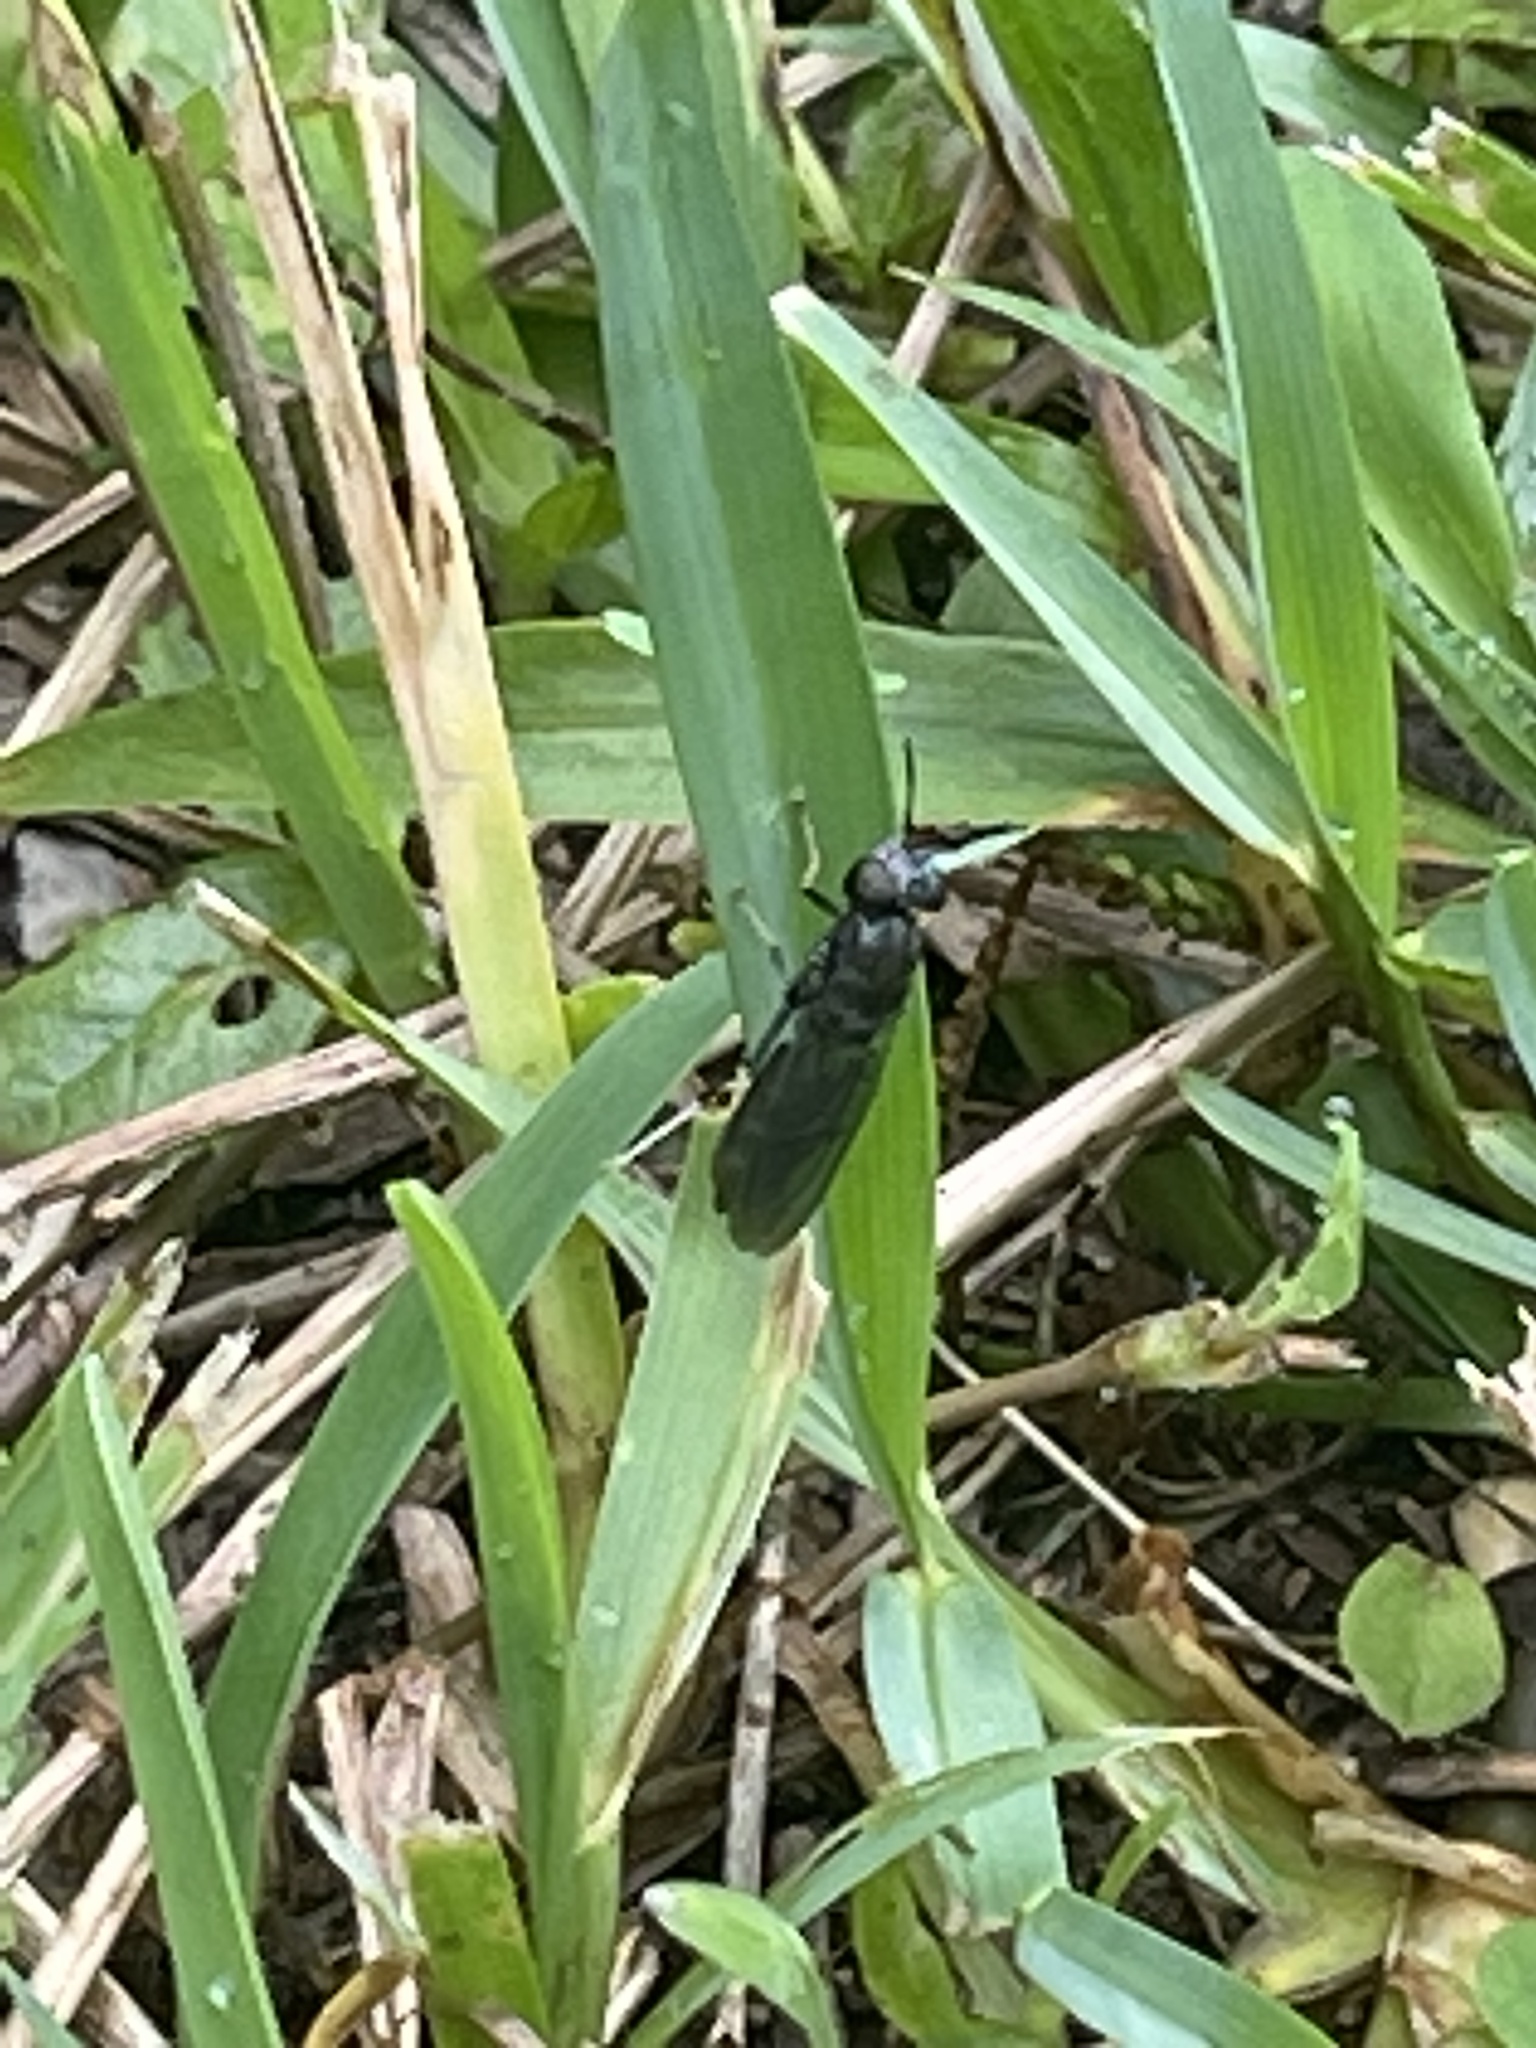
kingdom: Animalia
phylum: Arthropoda
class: Insecta
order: Diptera
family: Stratiomyidae
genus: Hermetia
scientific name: Hermetia illucens
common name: Black soldier fly
